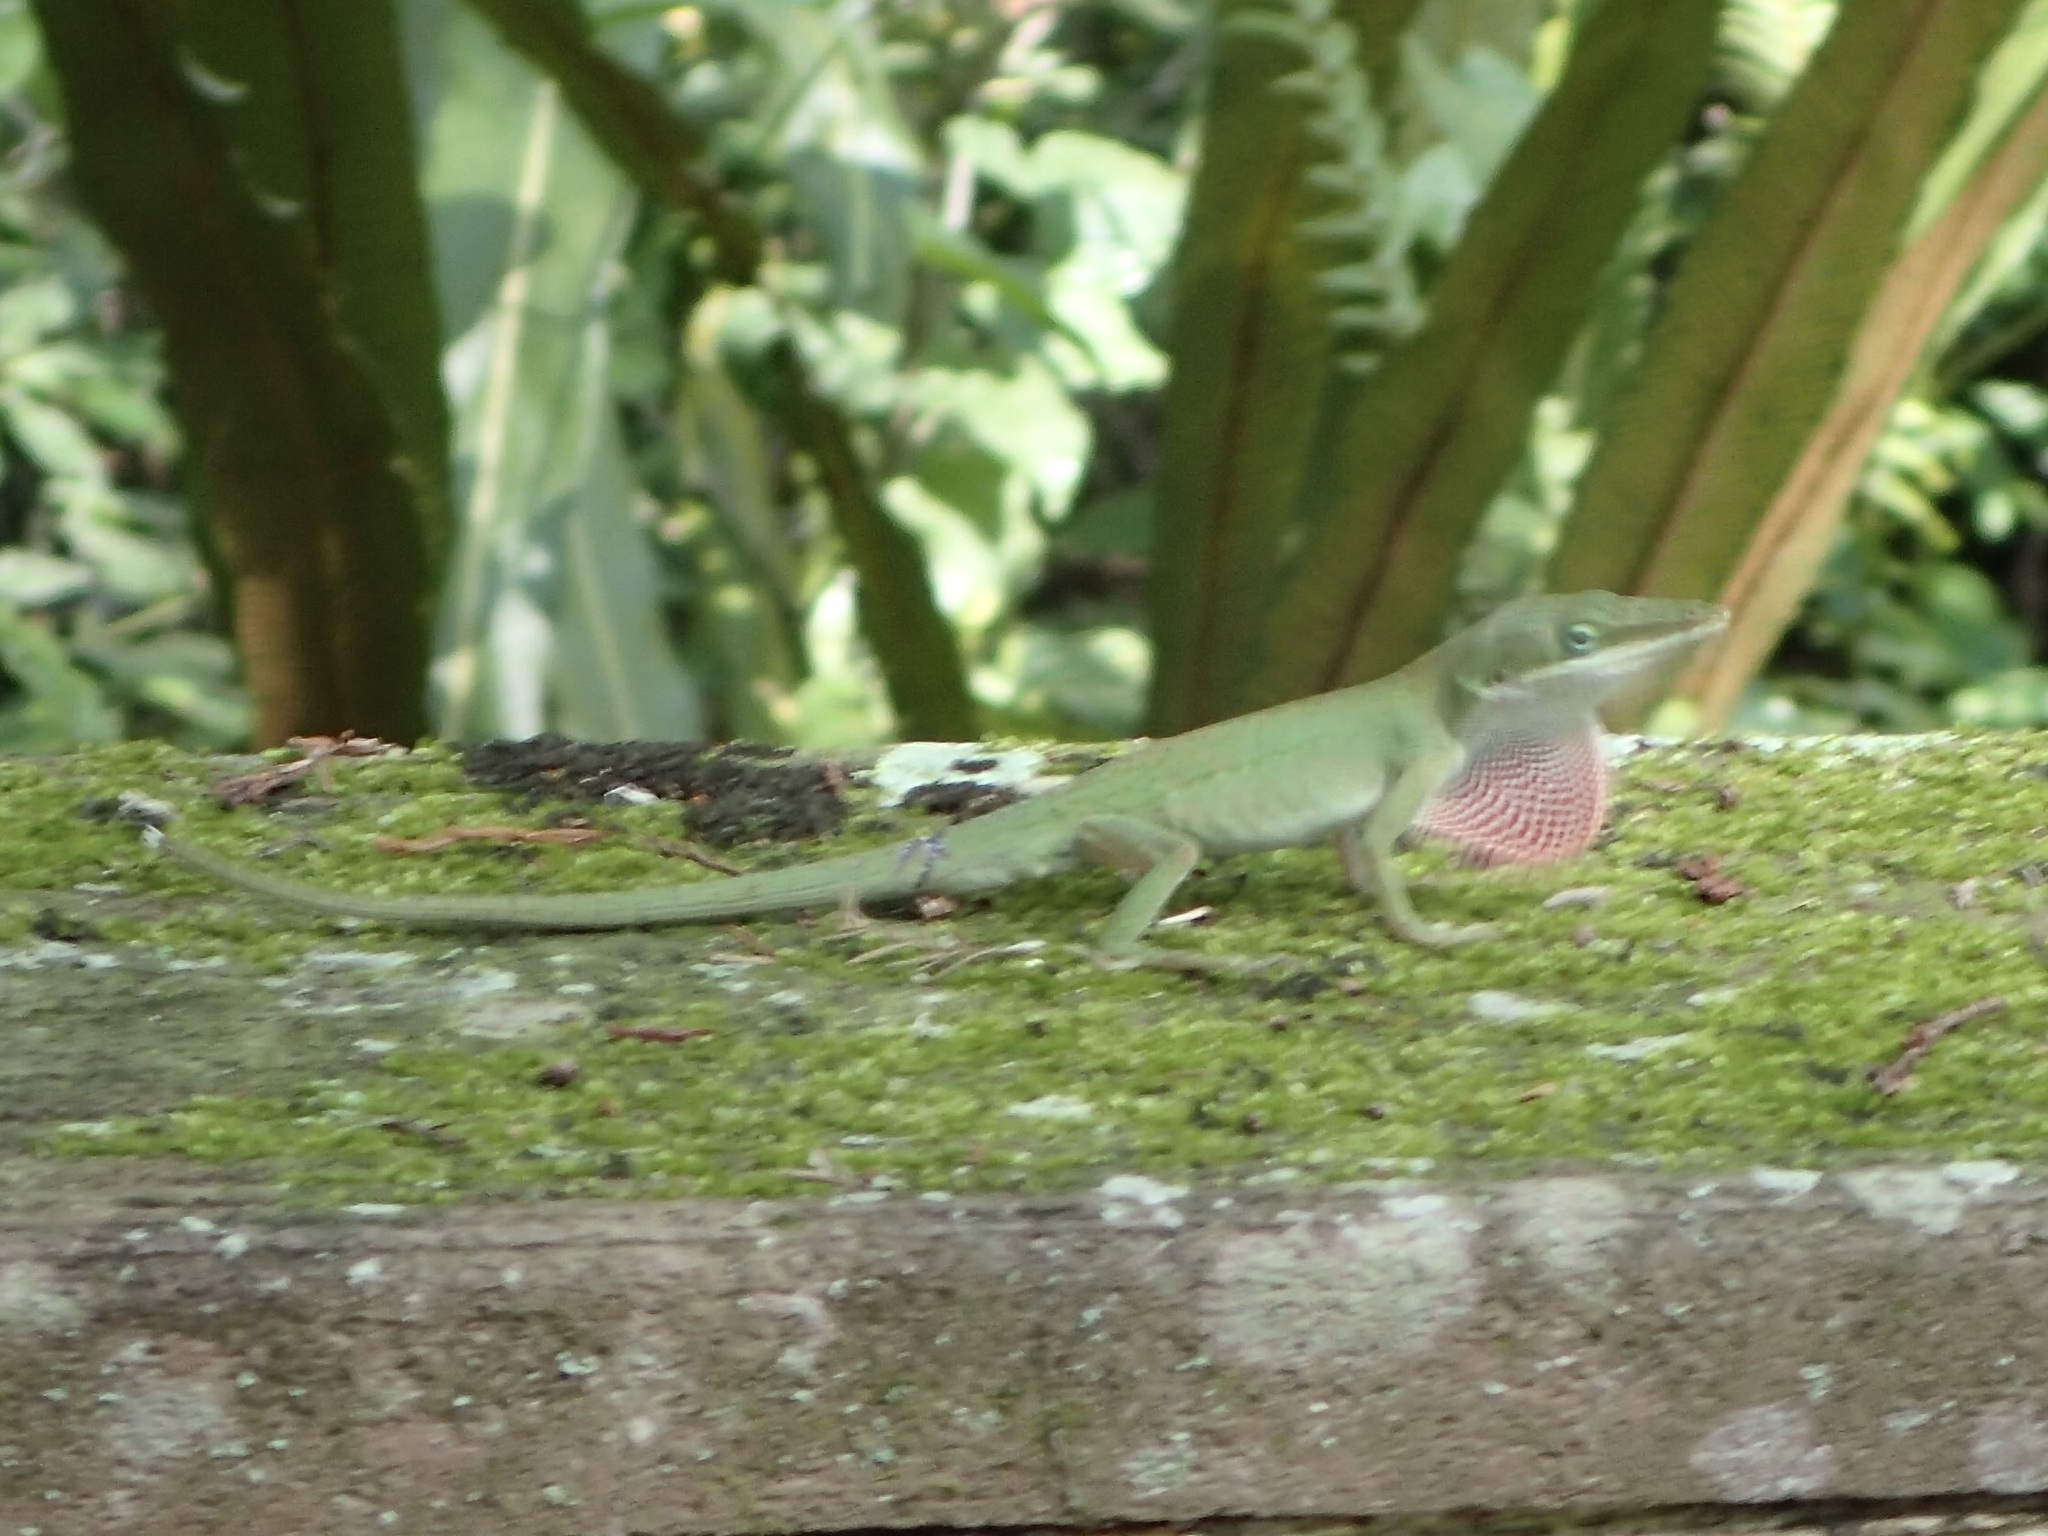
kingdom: Animalia
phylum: Chordata
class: Squamata
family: Dactyloidae
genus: Anolis
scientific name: Anolis carolinensis
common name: Green anole
